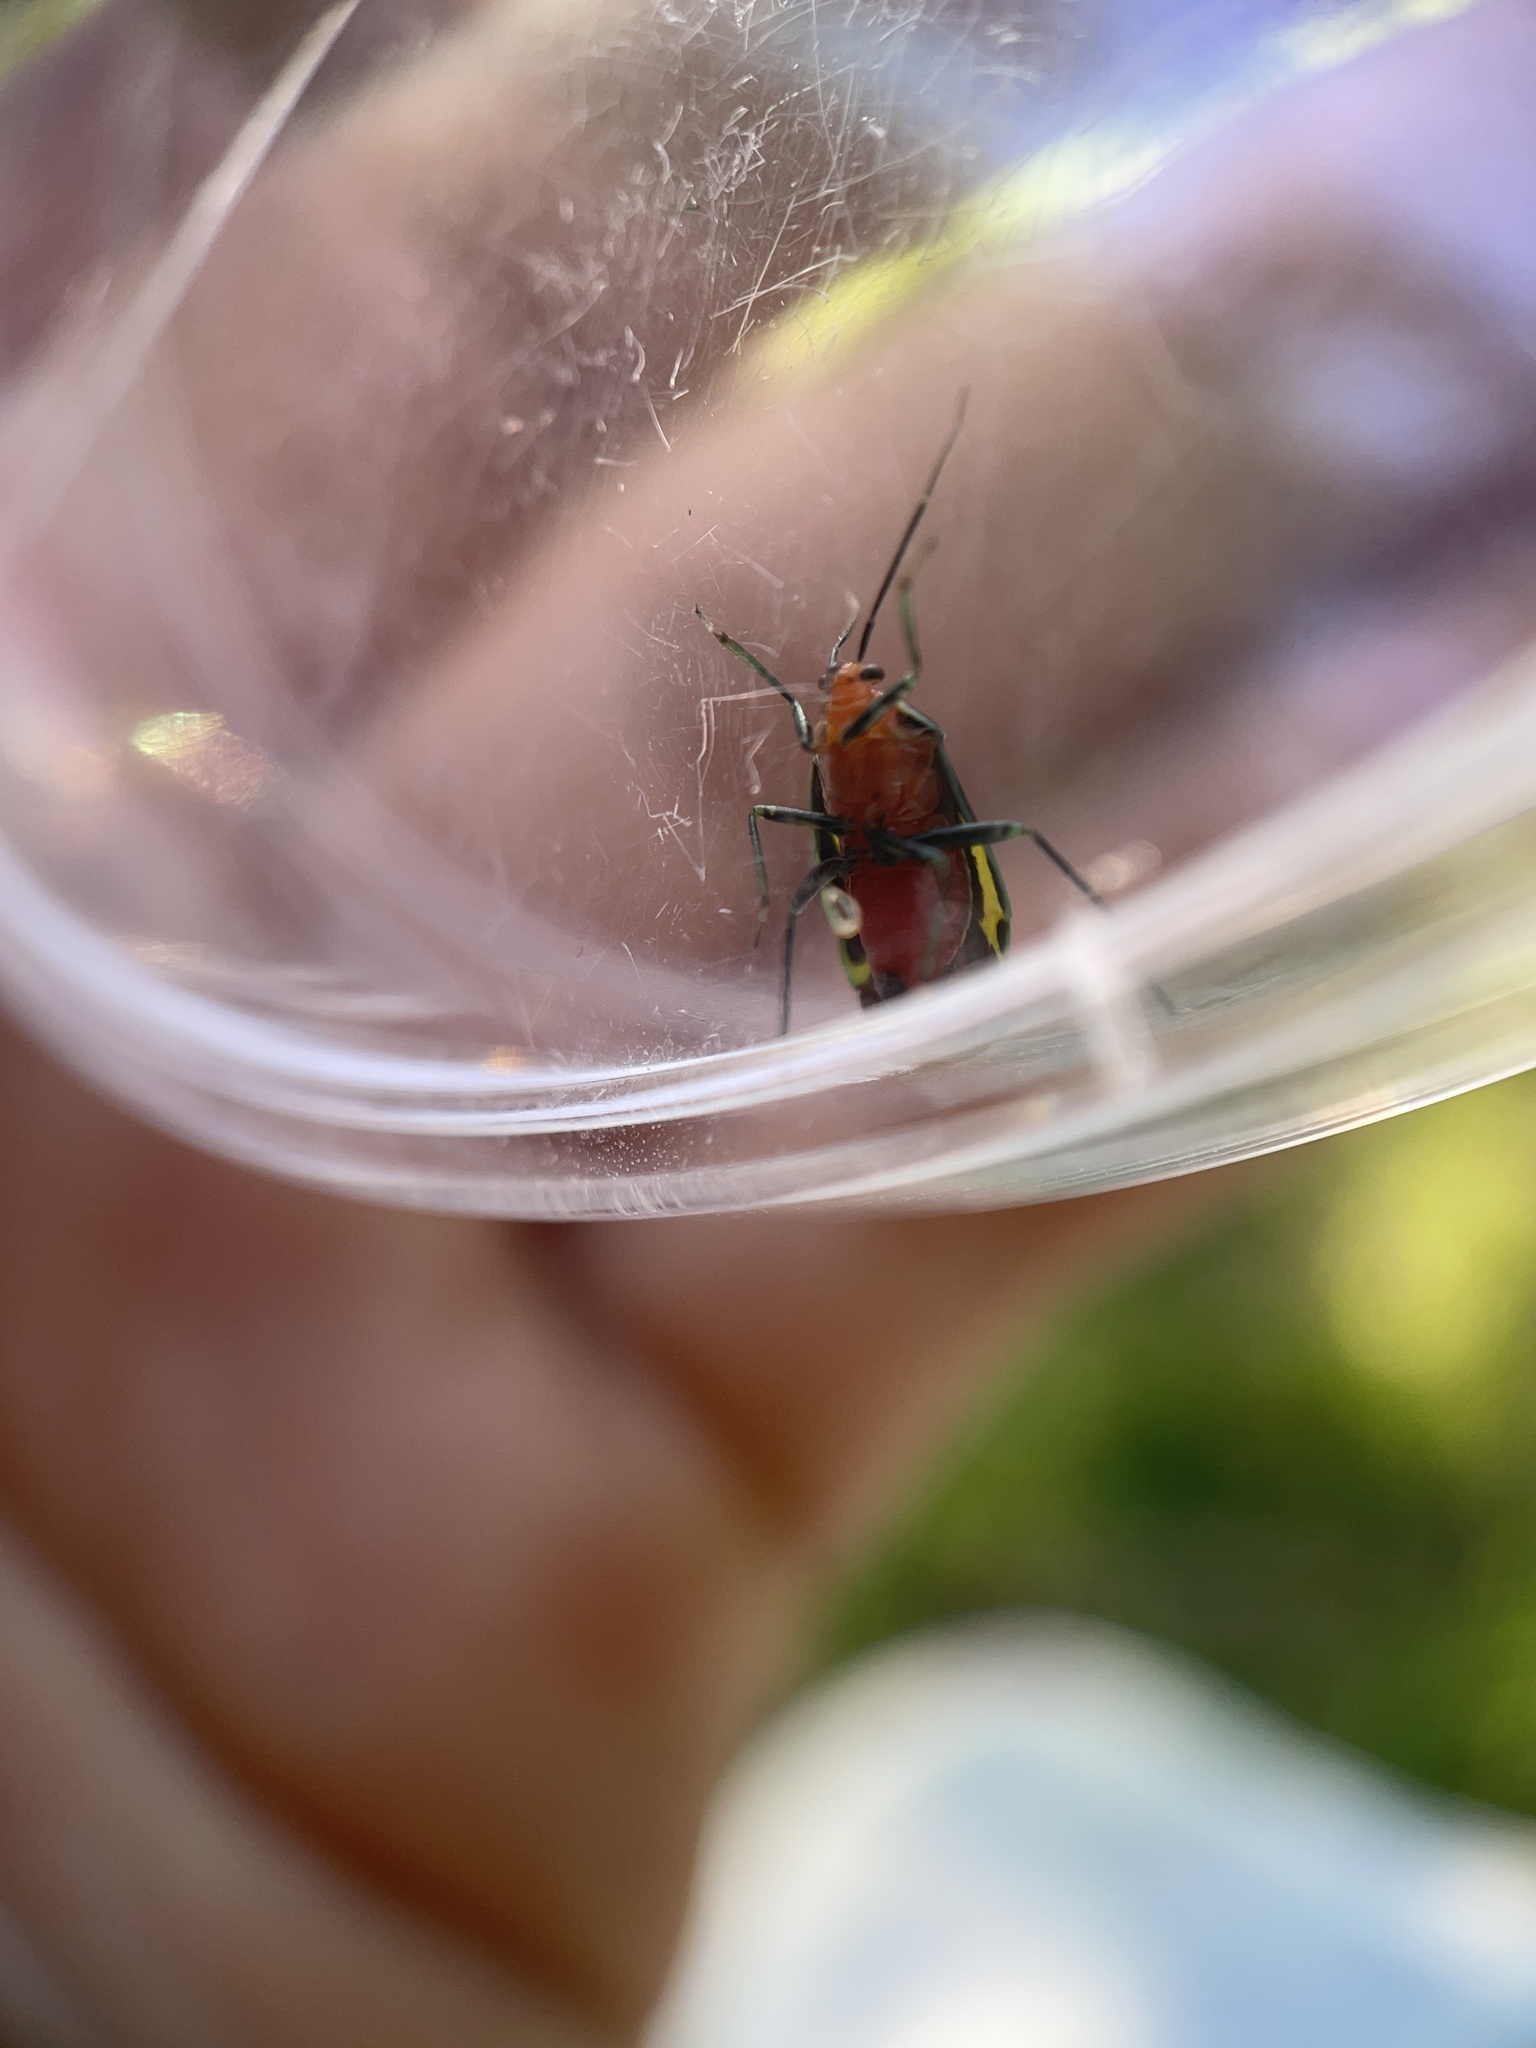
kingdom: Animalia
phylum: Arthropoda
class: Insecta
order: Hemiptera
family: Miridae
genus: Poecilocapsus
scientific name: Poecilocapsus lineatus
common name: Four-lined plant bug
